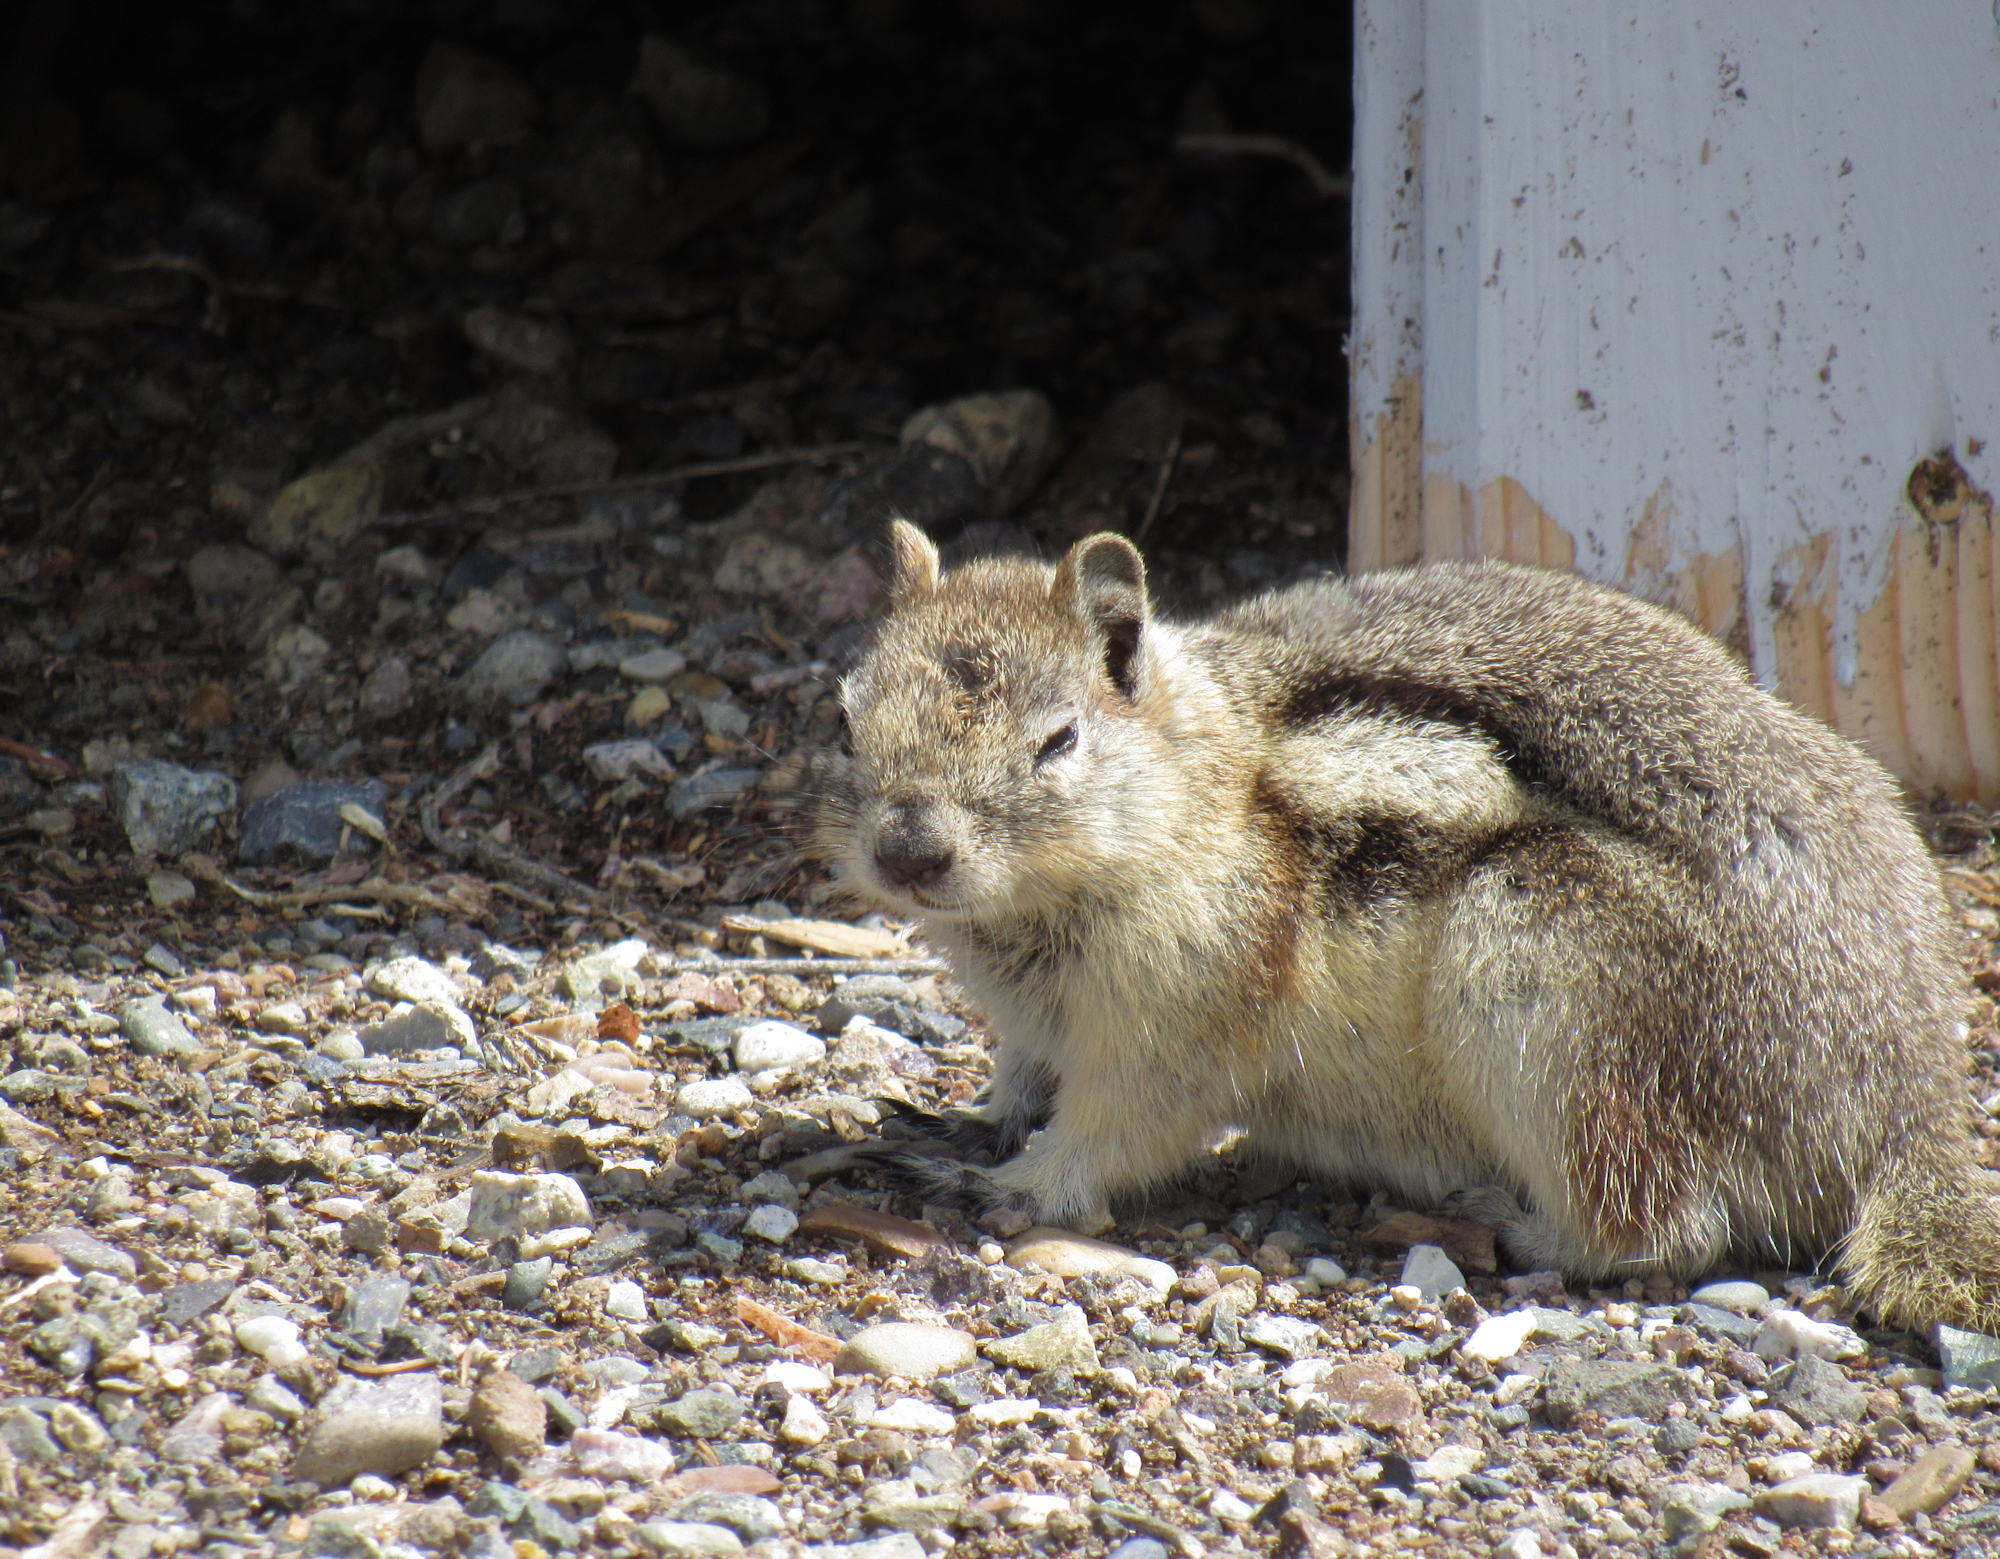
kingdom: Animalia
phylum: Chordata
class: Mammalia
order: Rodentia
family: Sciuridae
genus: Callospermophilus
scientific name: Callospermophilus lateralis
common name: Golden-mantled ground squirrel
